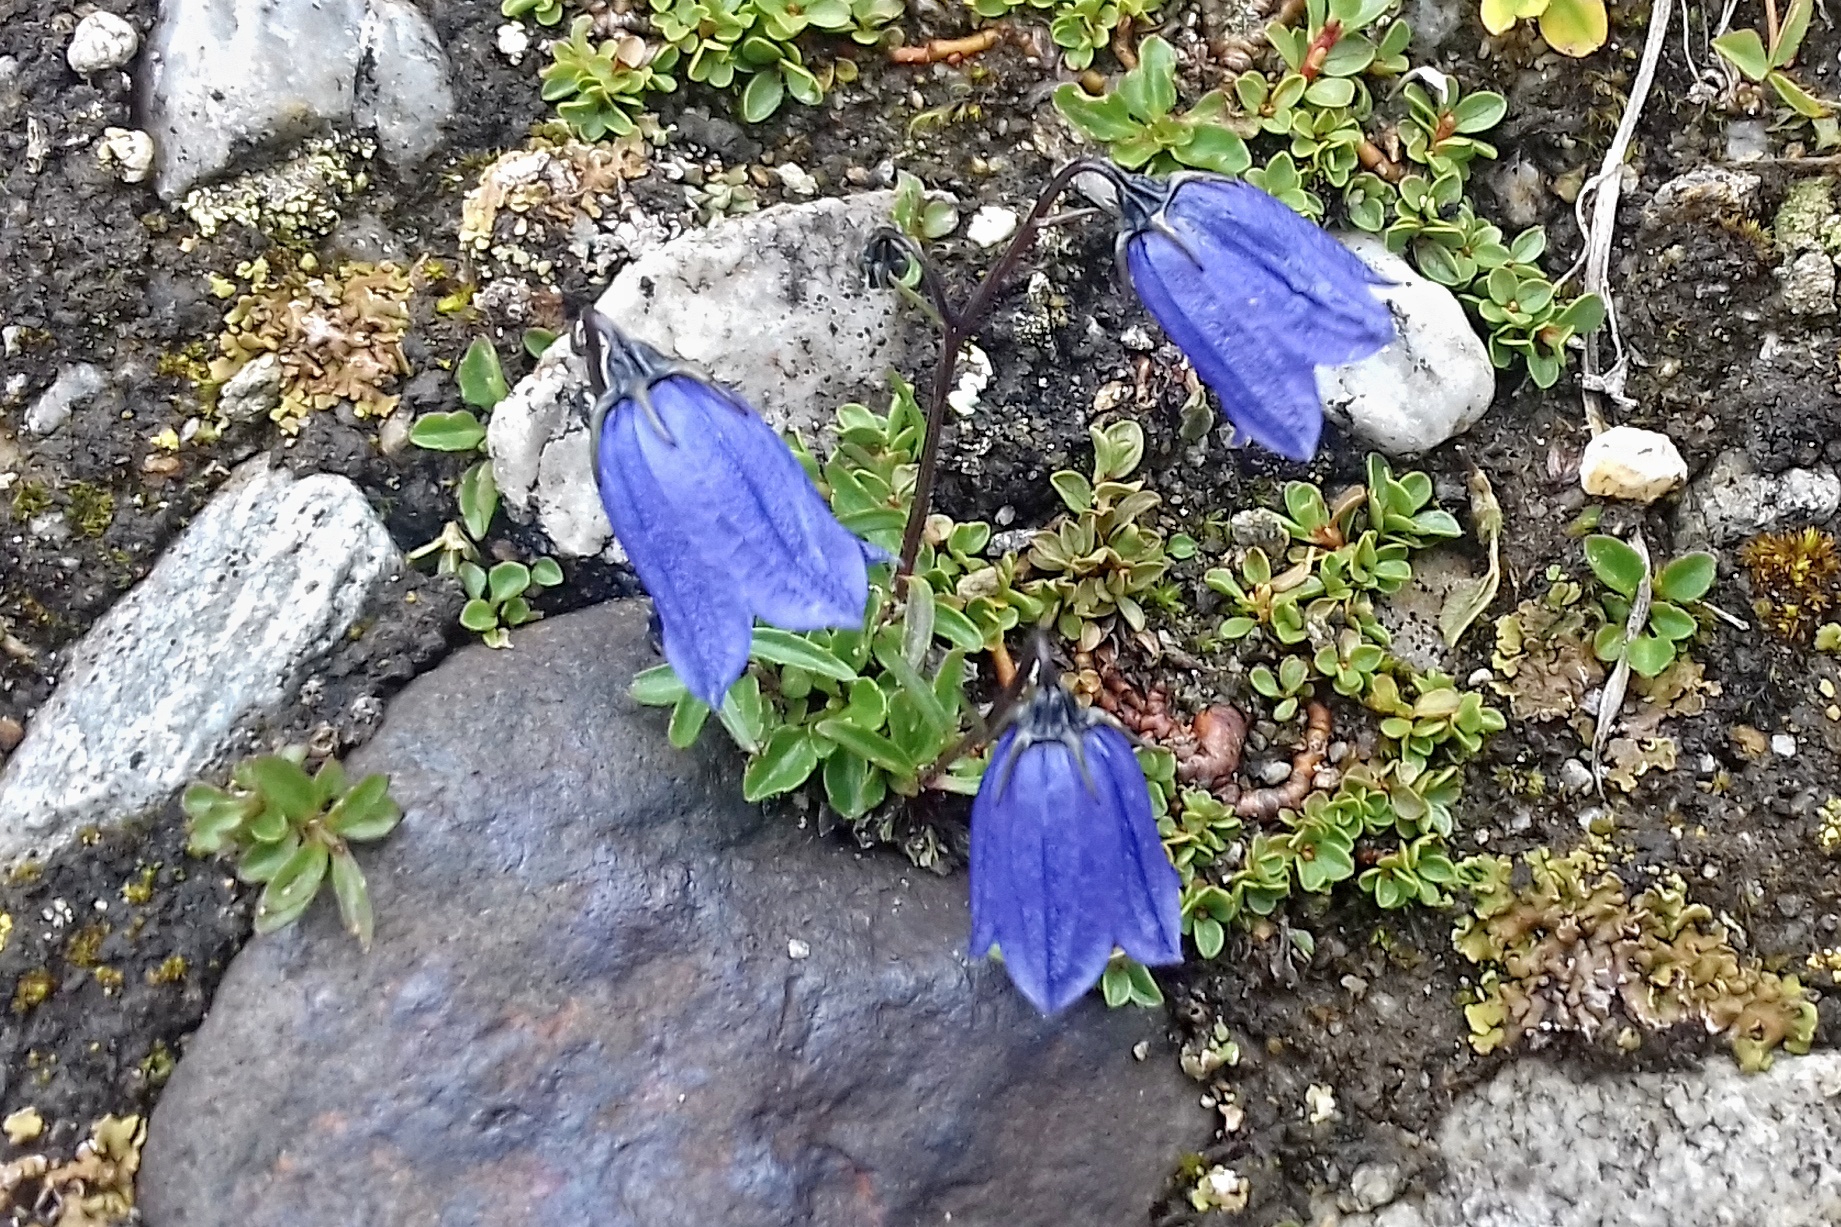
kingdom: Plantae
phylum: Tracheophyta
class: Magnoliopsida
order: Asterales
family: Campanulaceae
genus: Campanula
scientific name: Campanula cochleariifolia
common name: Fairies'-thimbles
